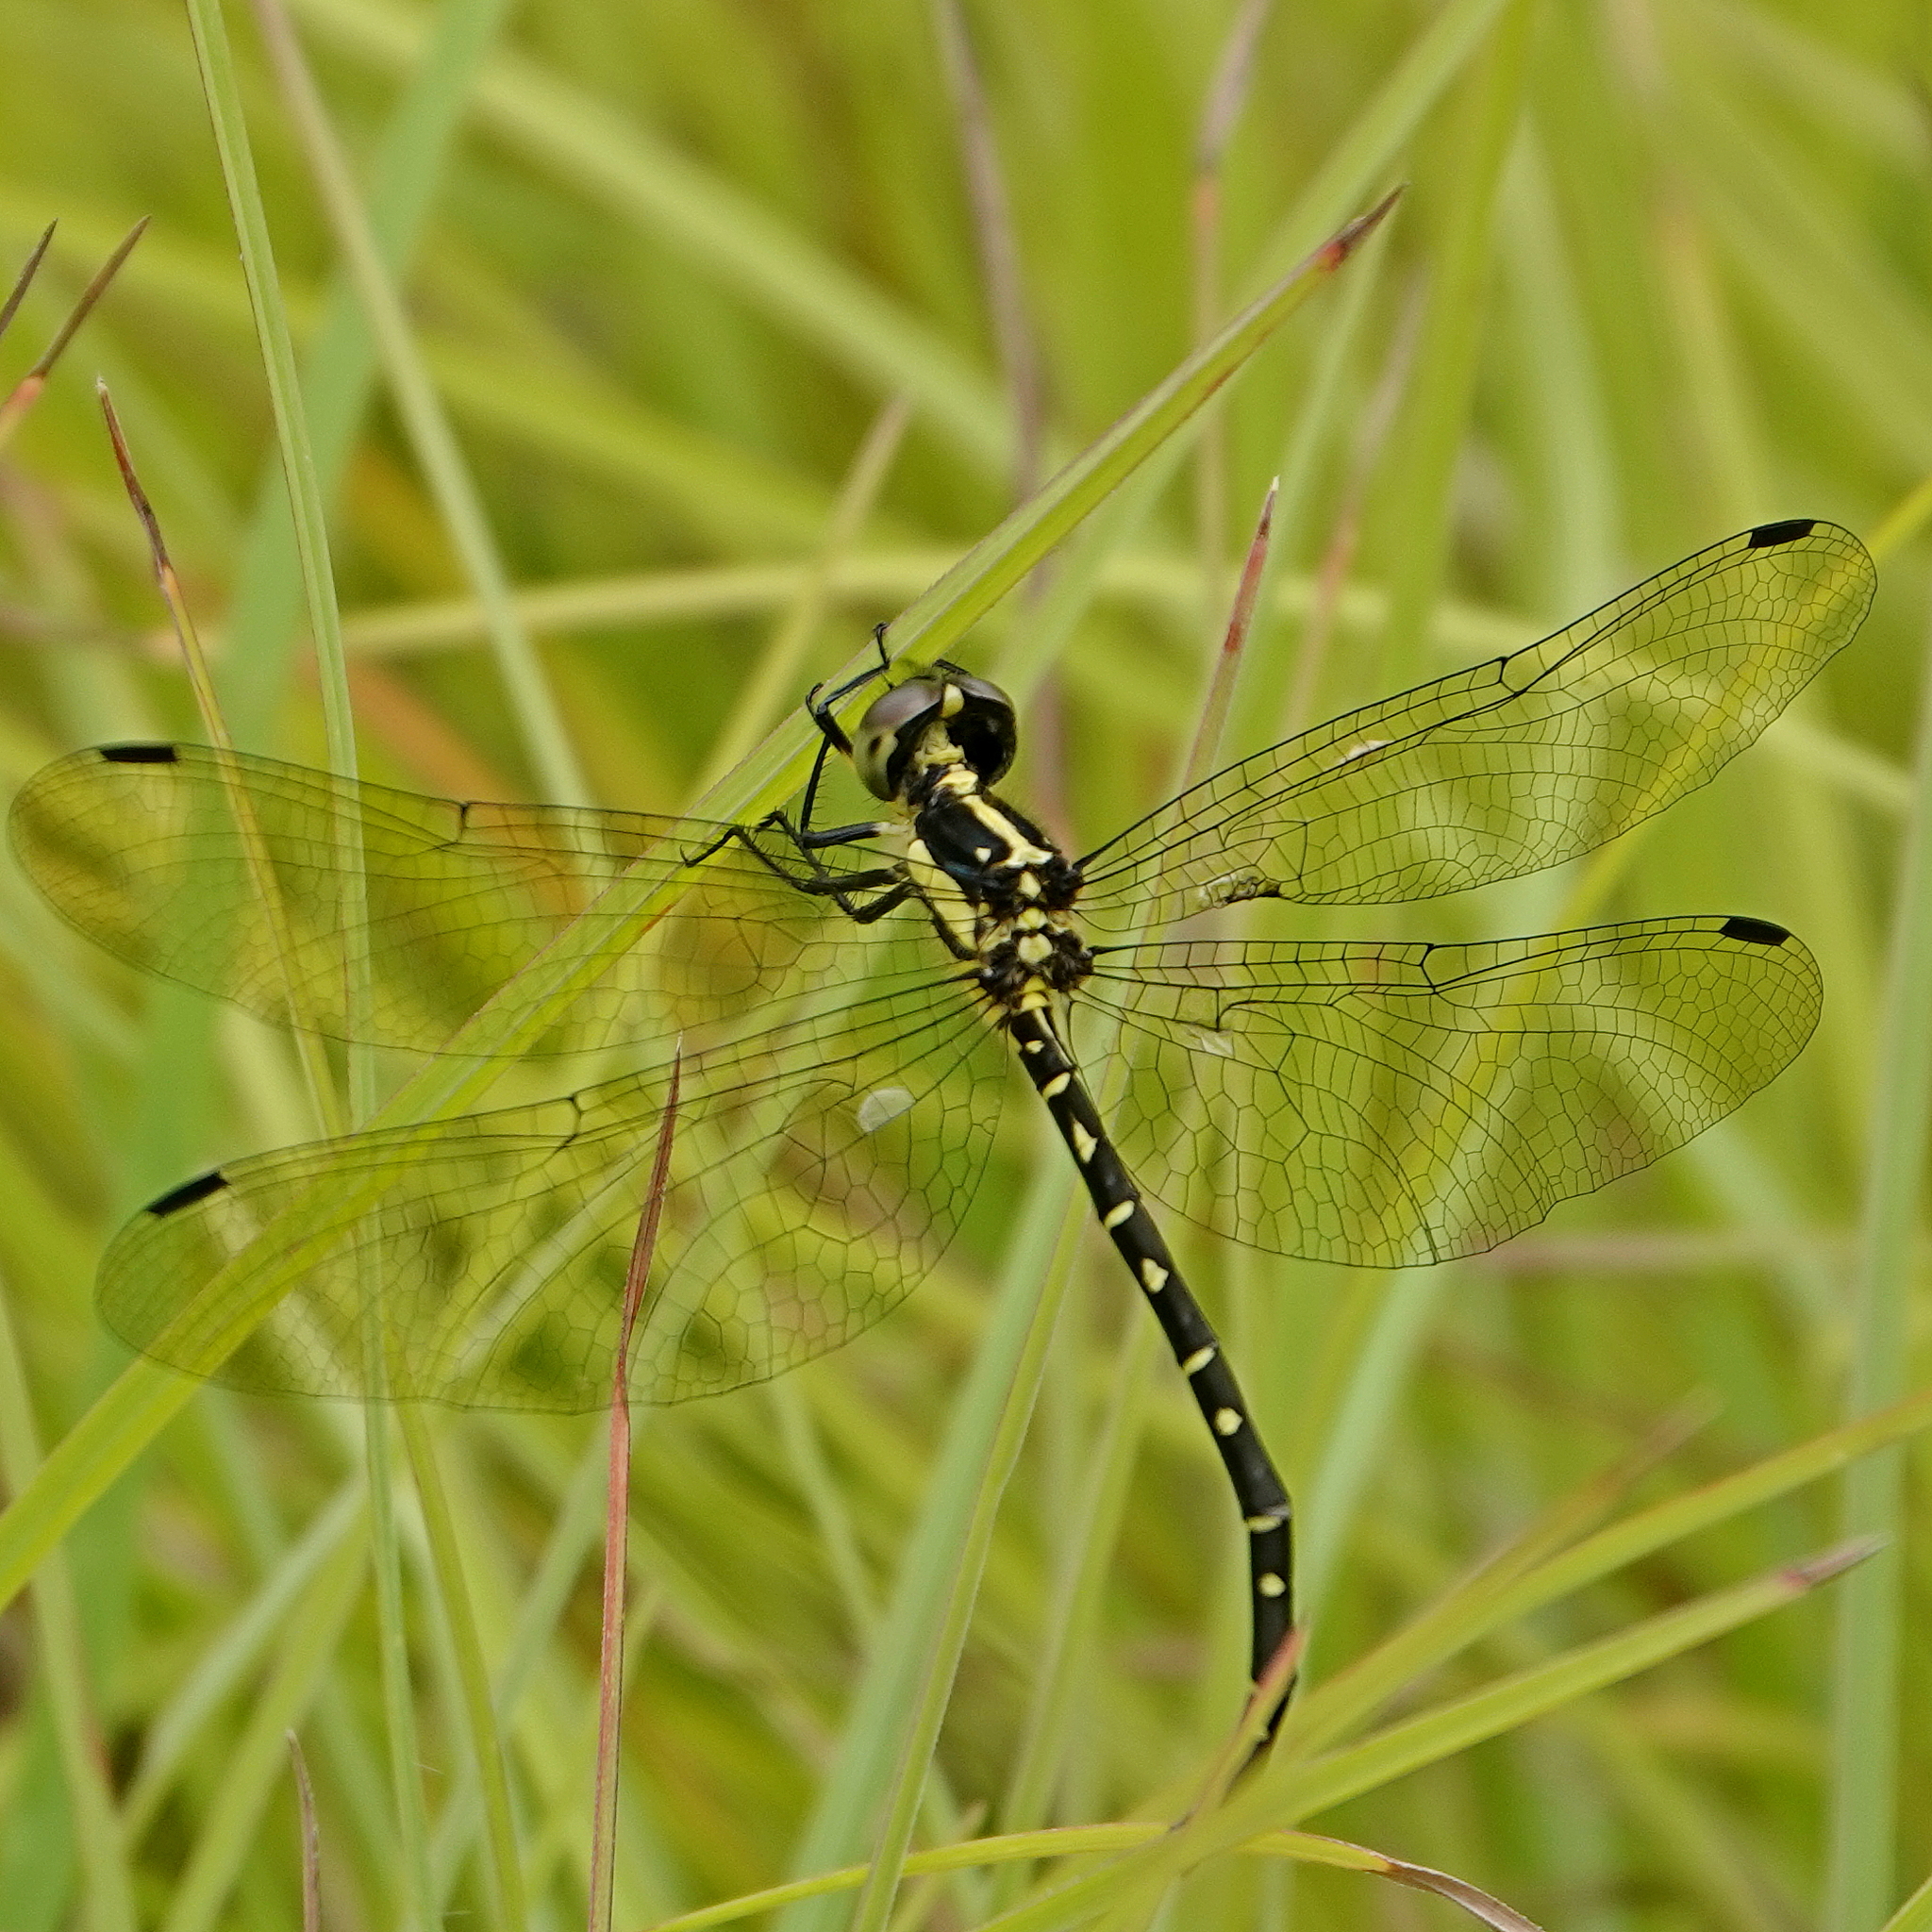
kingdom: Animalia
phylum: Arthropoda
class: Insecta
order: Odonata
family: Synthemistidae
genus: Choristhemis
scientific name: Choristhemis flavoterminata
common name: Yellow-tipped tigertail
